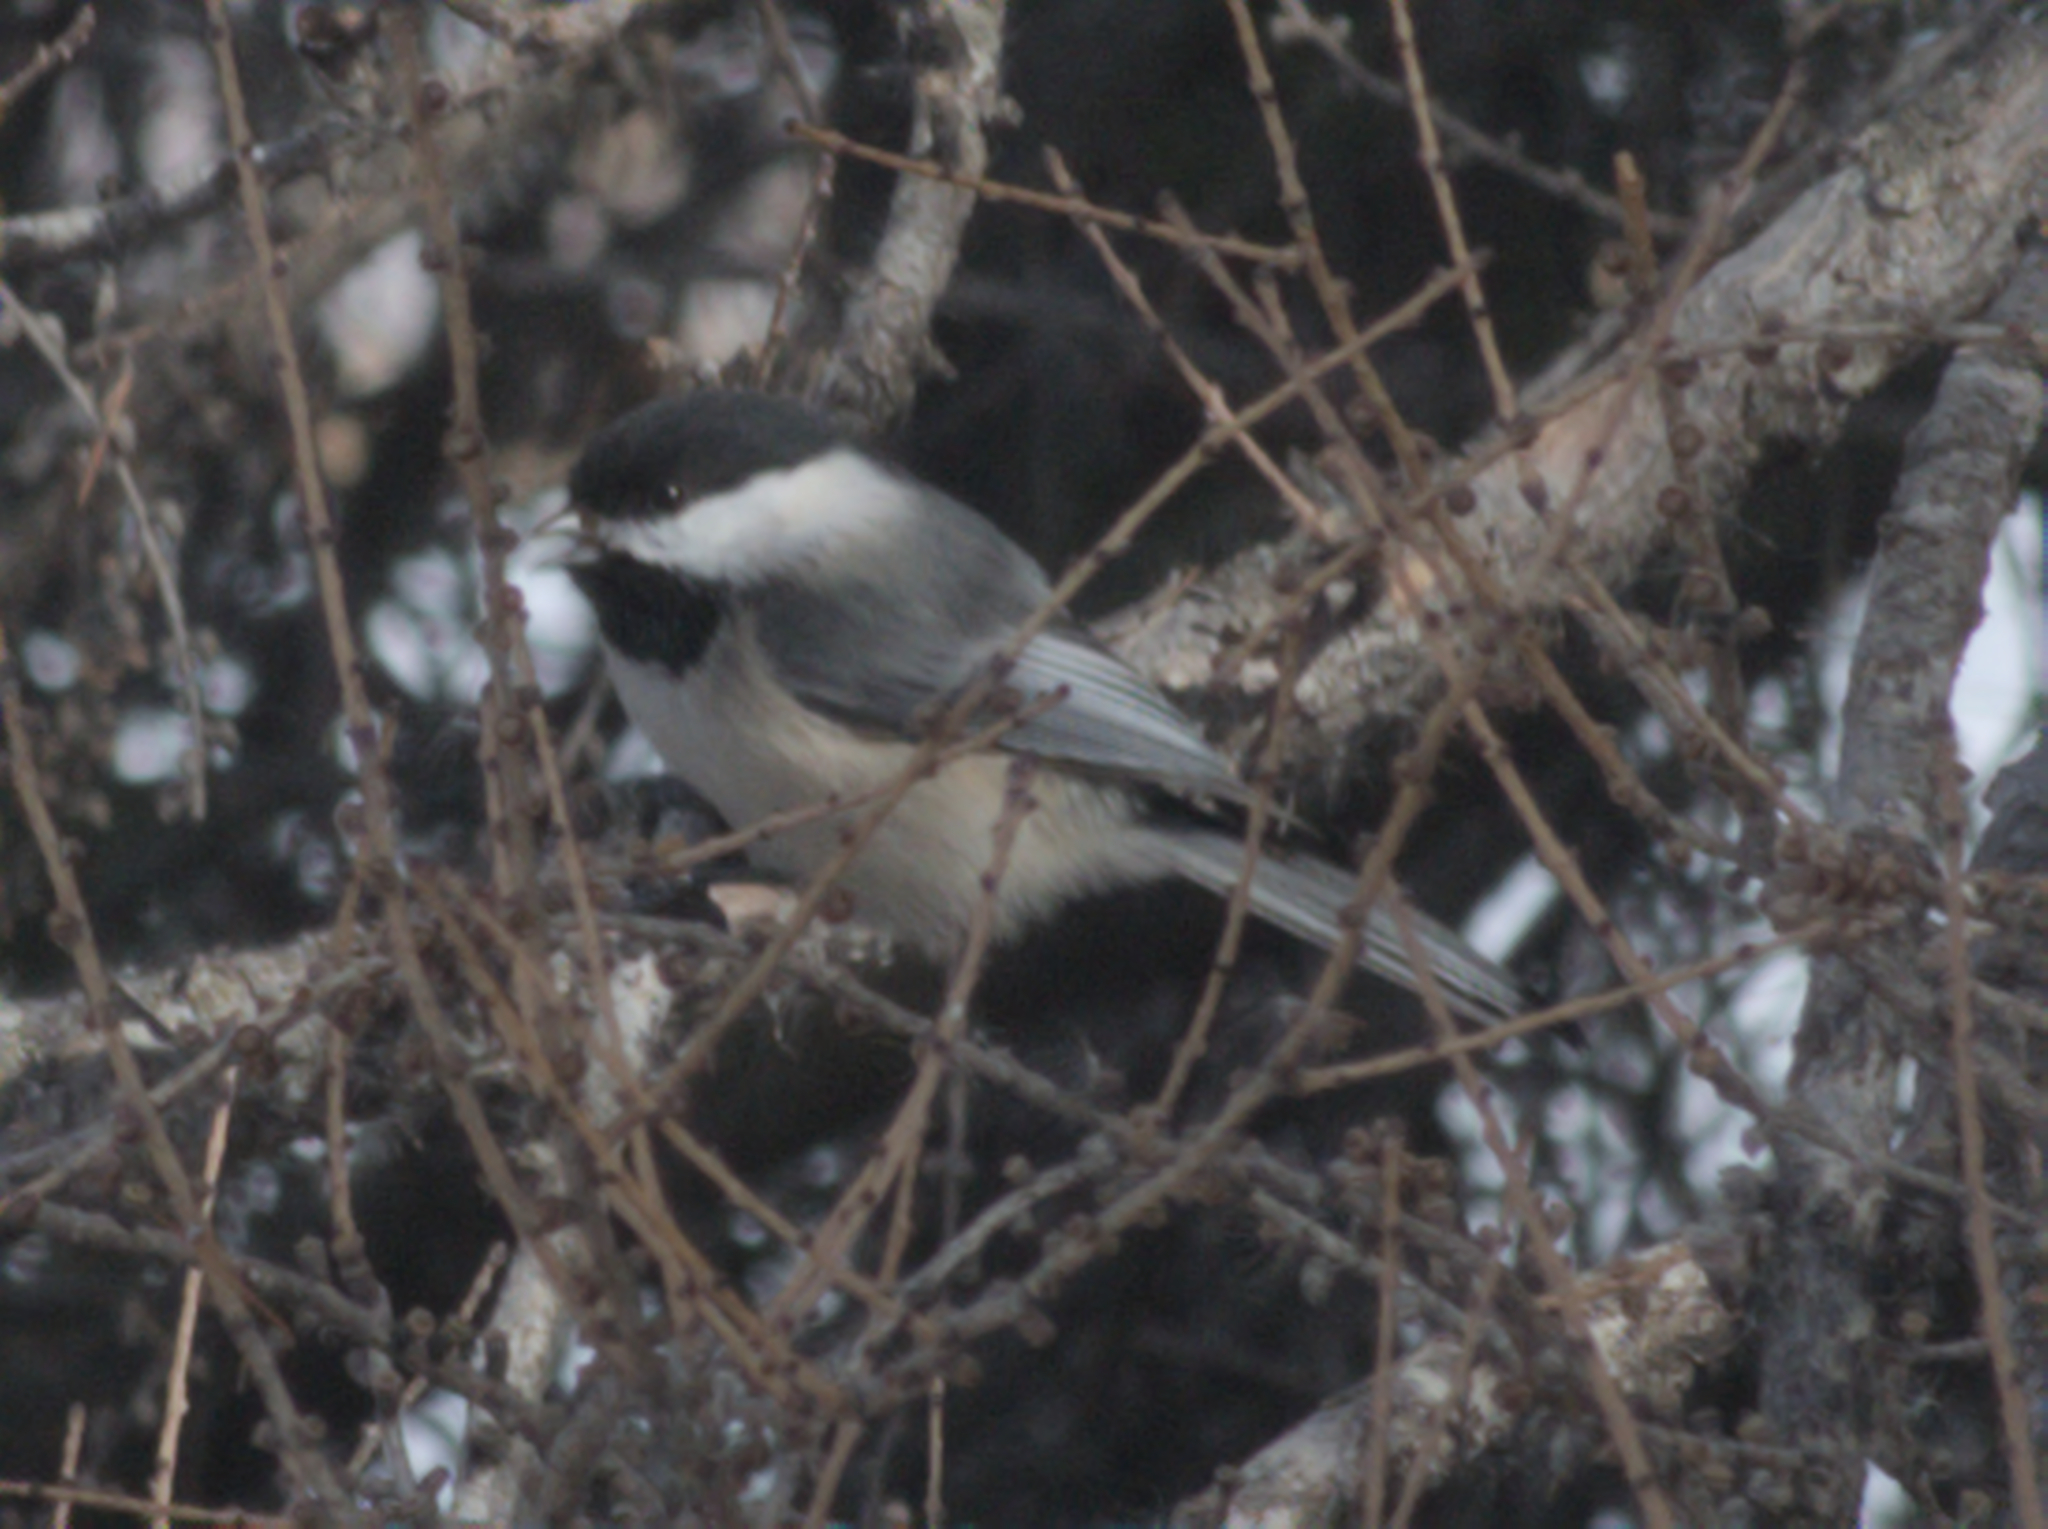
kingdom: Animalia
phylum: Chordata
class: Aves
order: Passeriformes
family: Paridae
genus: Poecile
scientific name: Poecile atricapillus
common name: Black-capped chickadee
